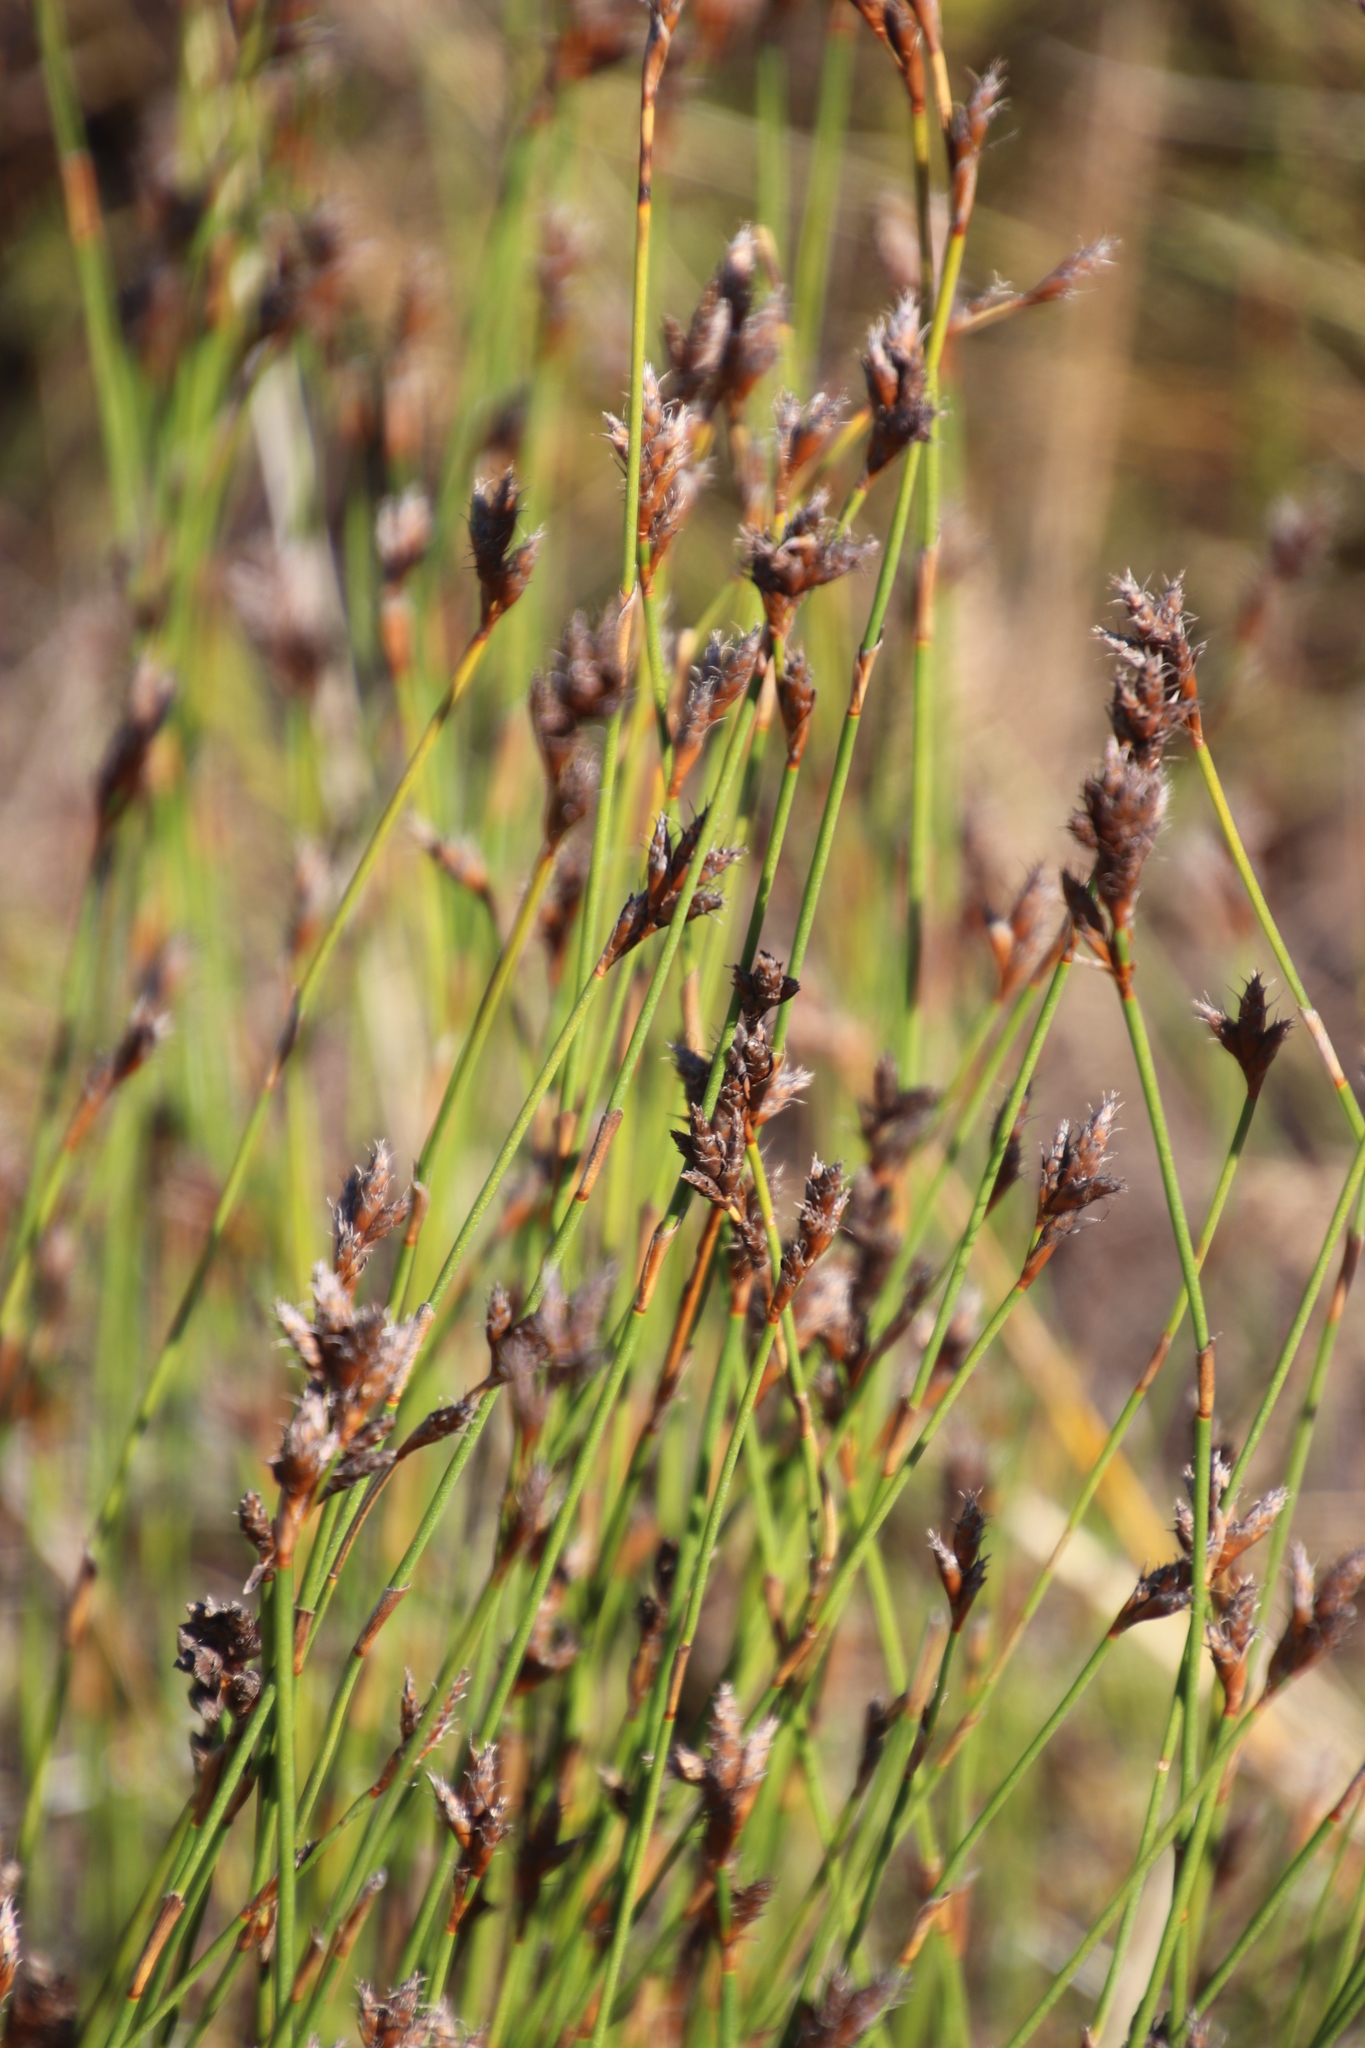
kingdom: Plantae
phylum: Tracheophyta
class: Liliopsida
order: Poales
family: Restionaceae
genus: Restio
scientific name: Restio capensis
